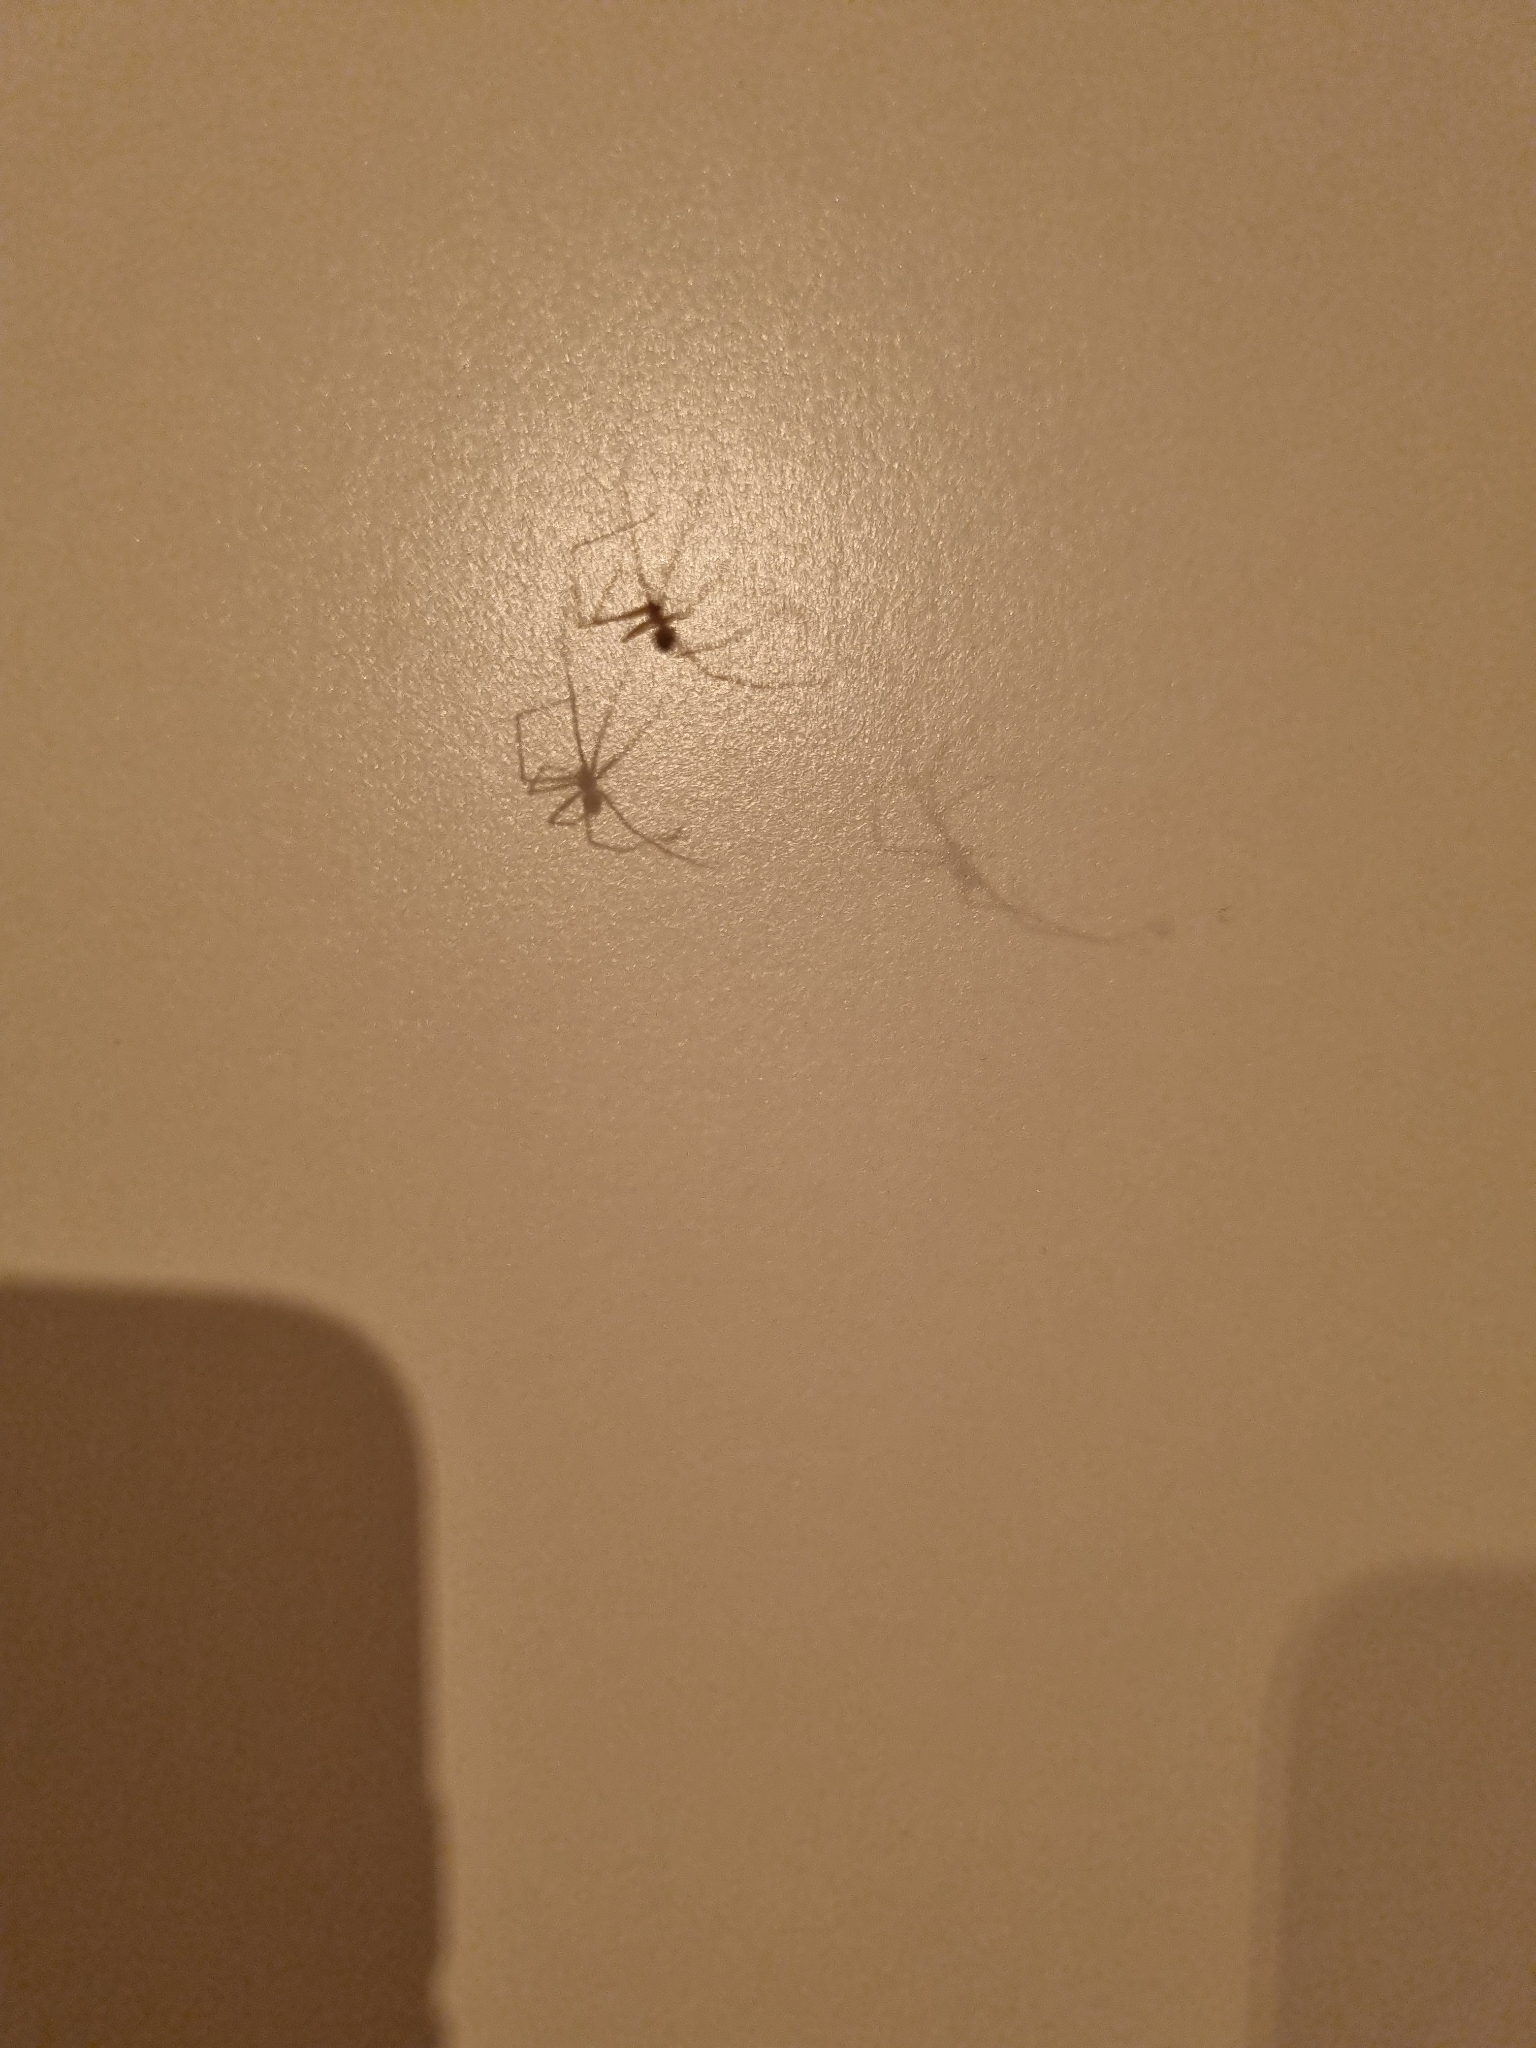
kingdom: Animalia
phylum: Arthropoda
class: Arachnida
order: Araneae
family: Pholcidae
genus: Psilochorus
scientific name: Psilochorus simoni
